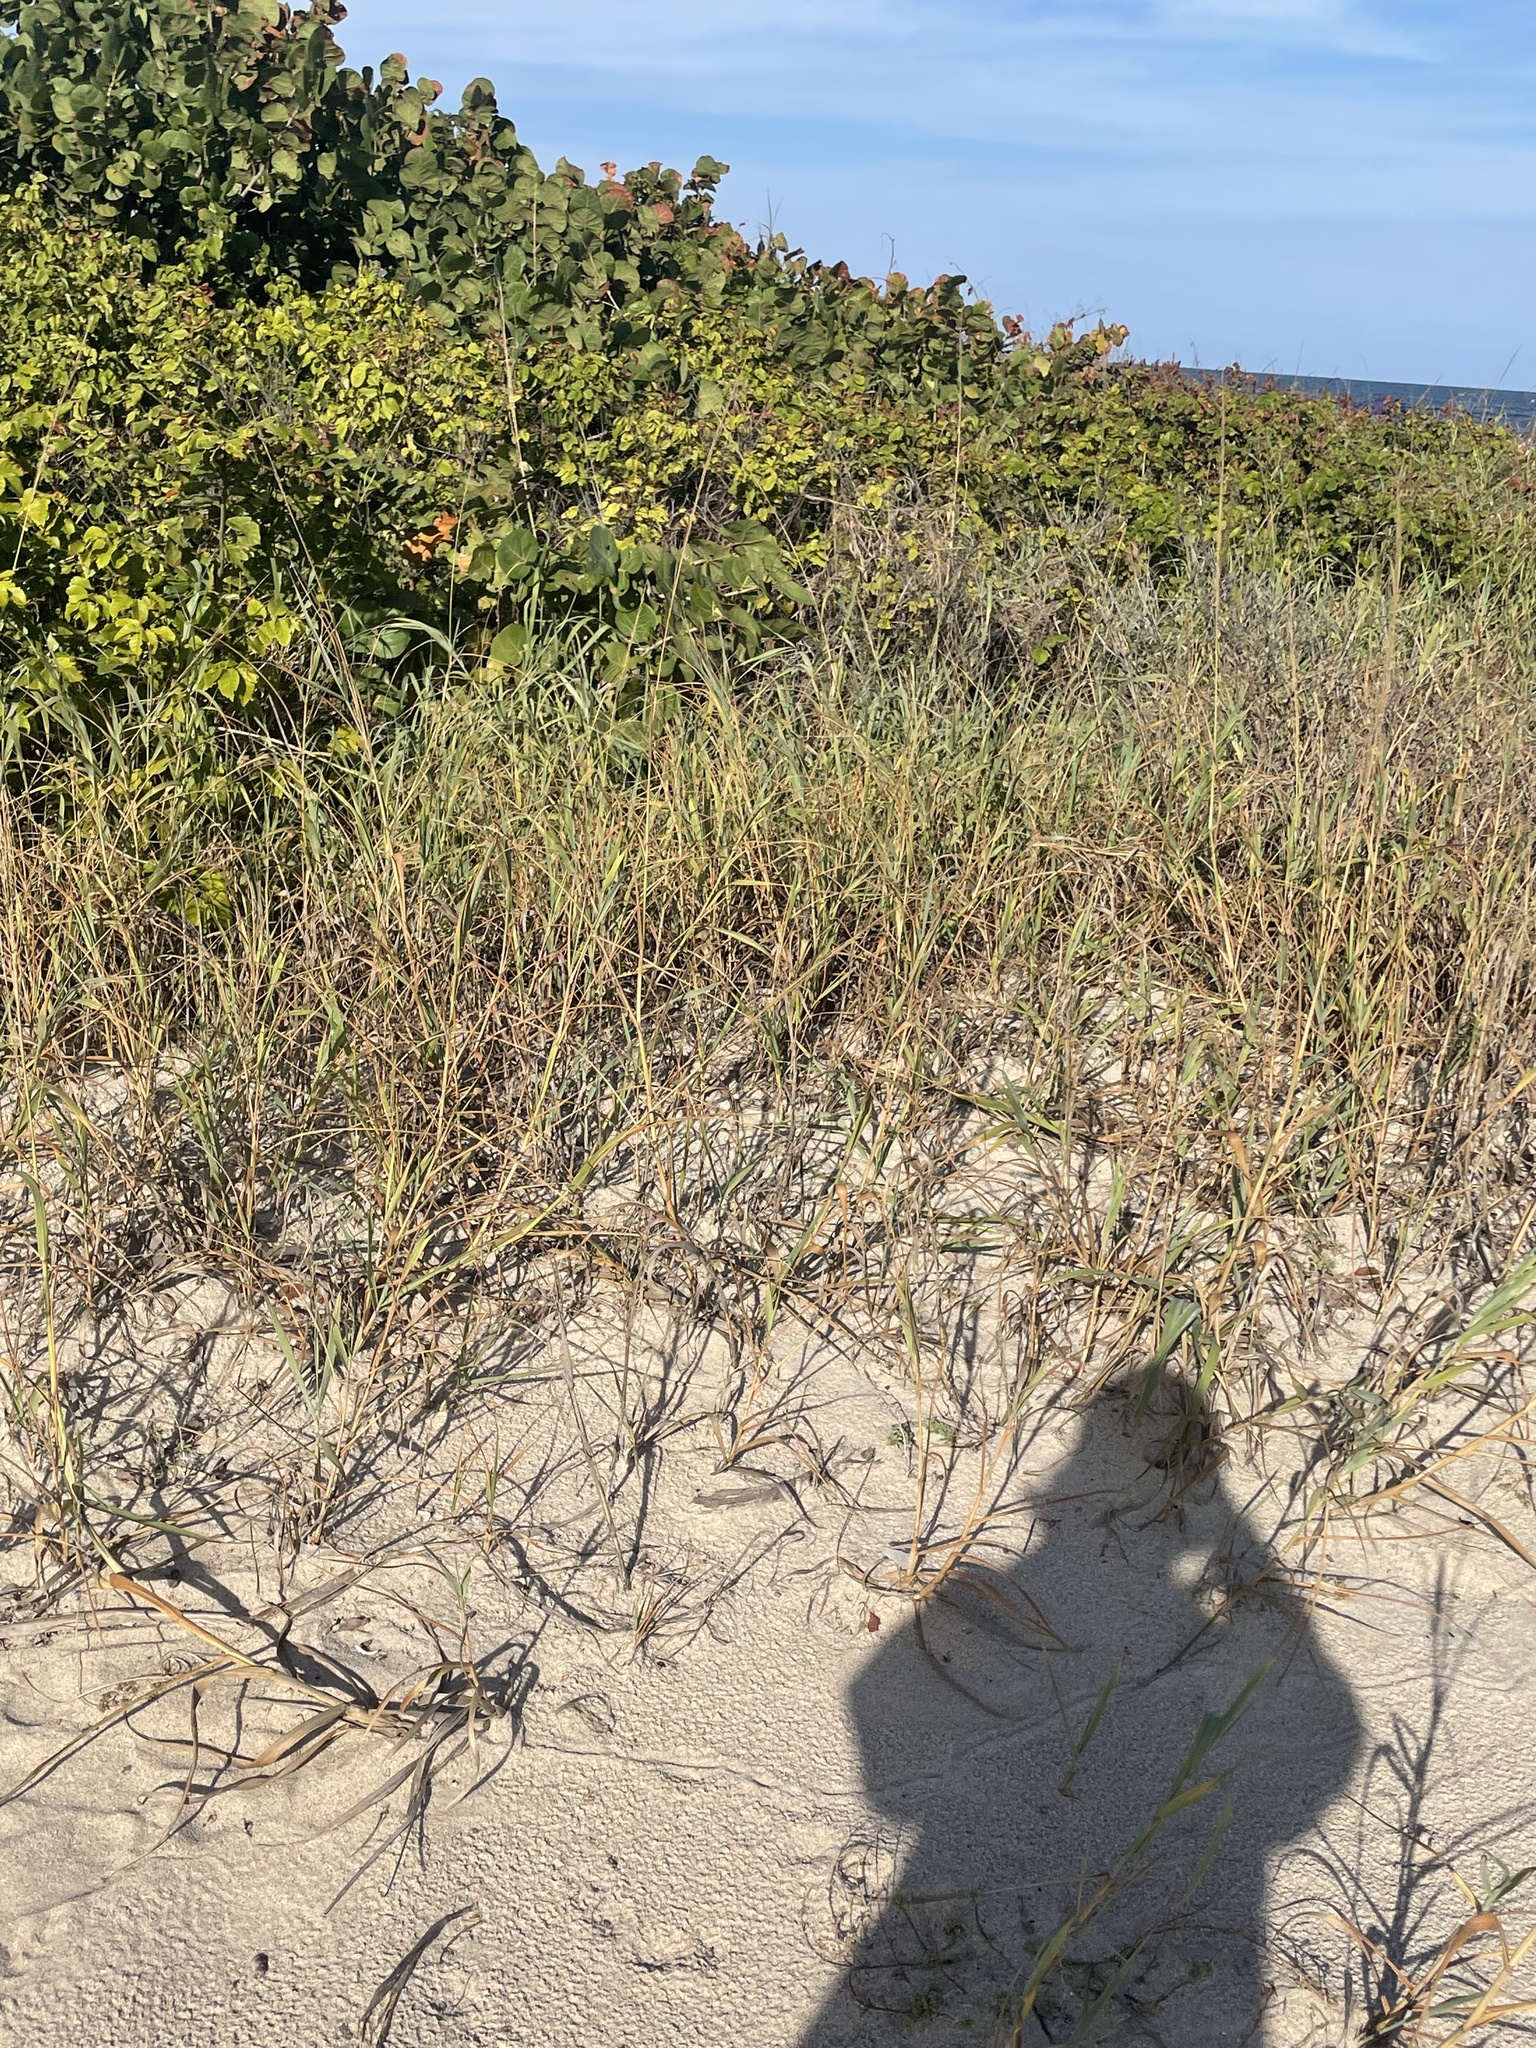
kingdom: Plantae
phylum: Tracheophyta
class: Liliopsida
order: Poales
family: Poaceae
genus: Panicum
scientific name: Panicum amarum
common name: Bitter panicum
